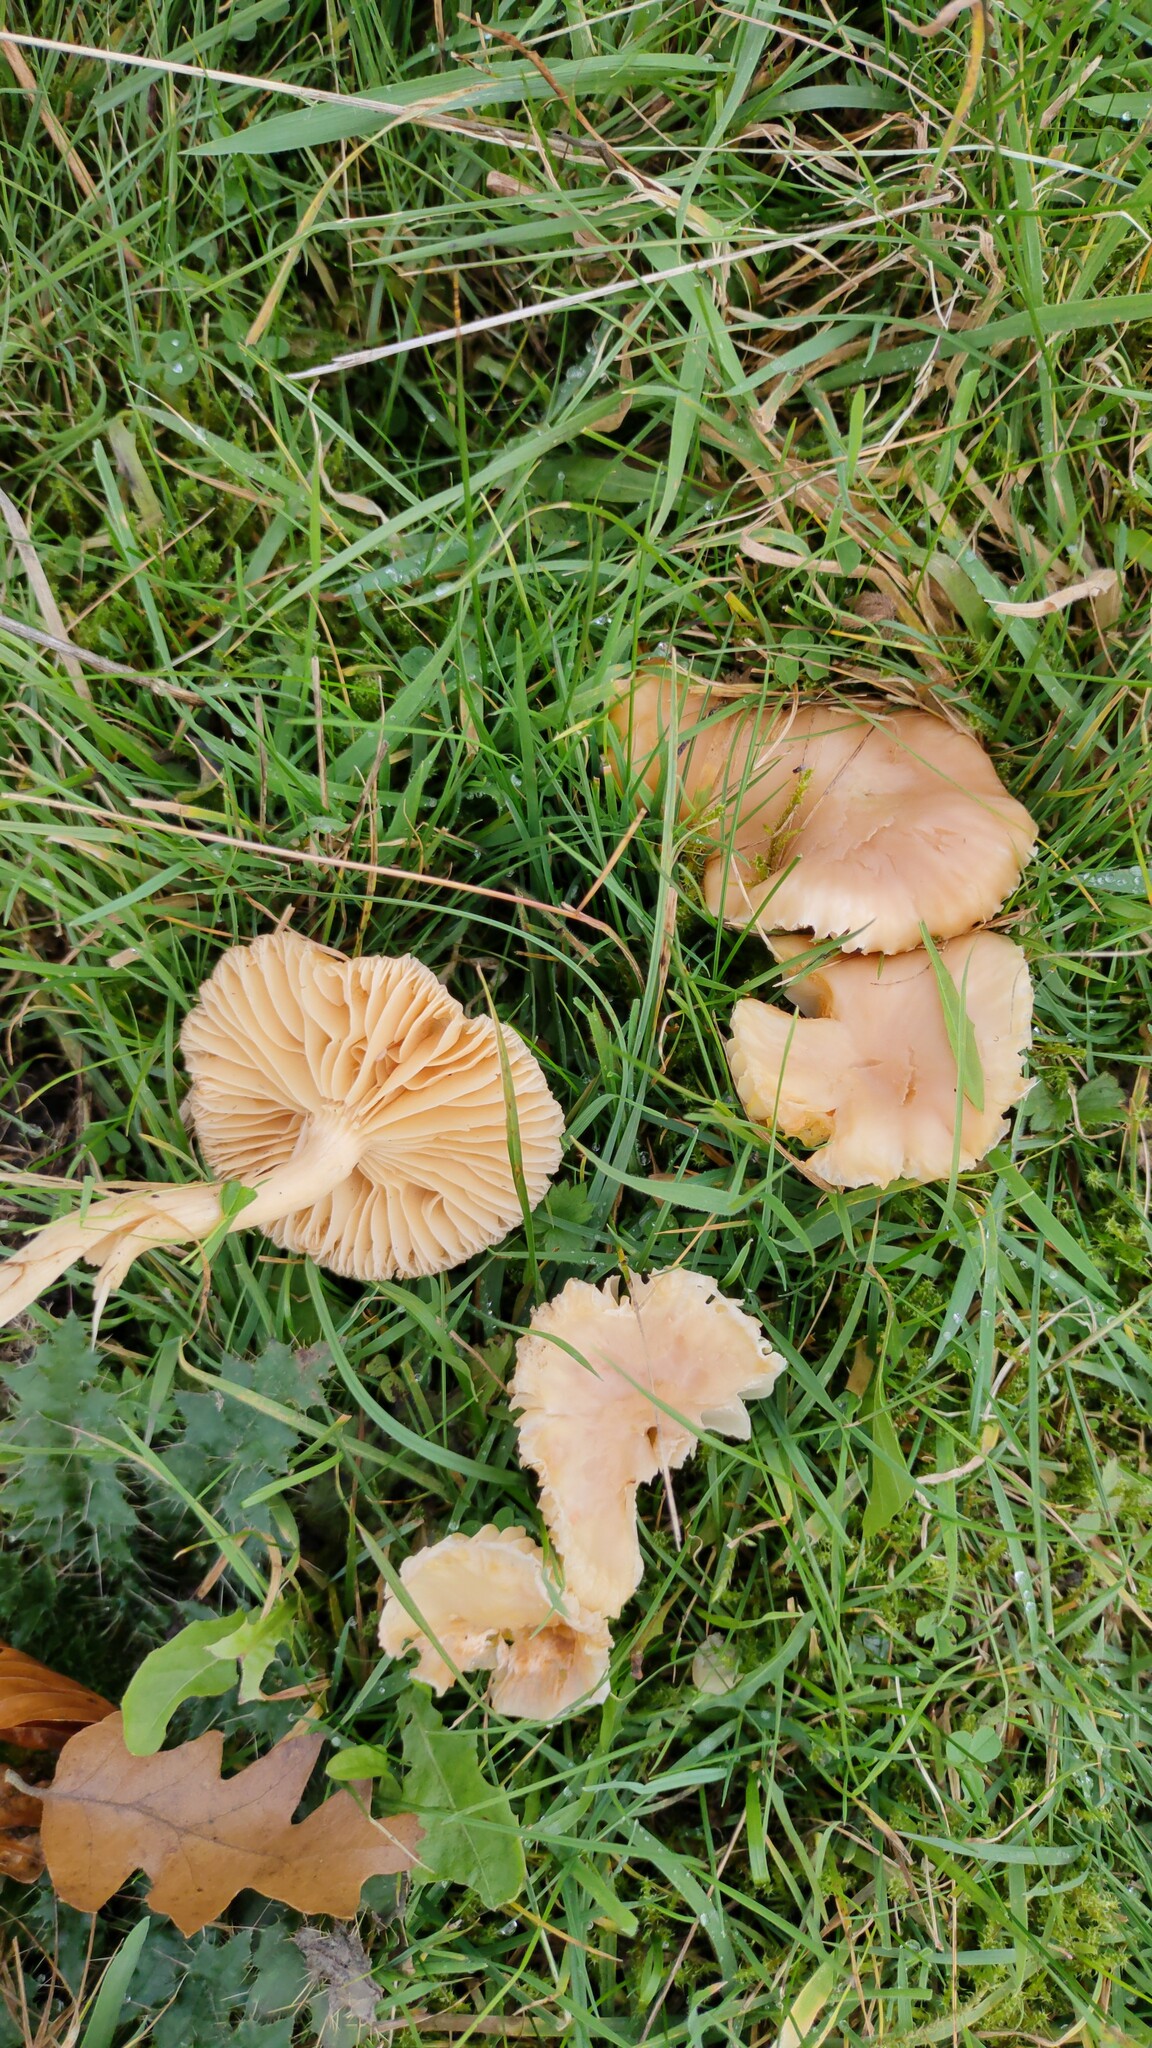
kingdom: Fungi
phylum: Basidiomycota
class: Agaricomycetes
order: Agaricales
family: Hygrophoraceae
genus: Cuphophyllus
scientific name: Cuphophyllus pratensis
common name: Meadow waxcap
